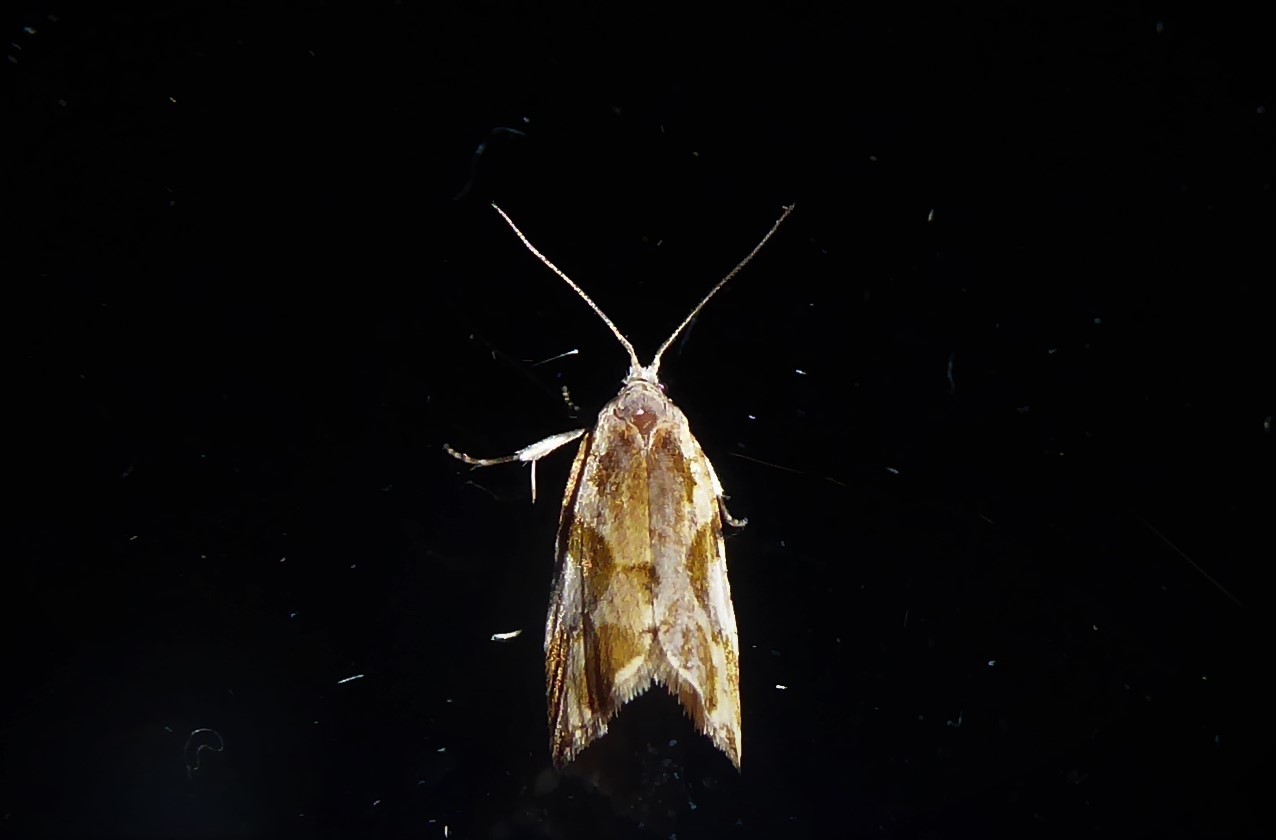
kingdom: Animalia
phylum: Arthropoda
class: Insecta
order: Lepidoptera
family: Tortricidae
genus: Pyrgotis
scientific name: Pyrgotis plagiatana
